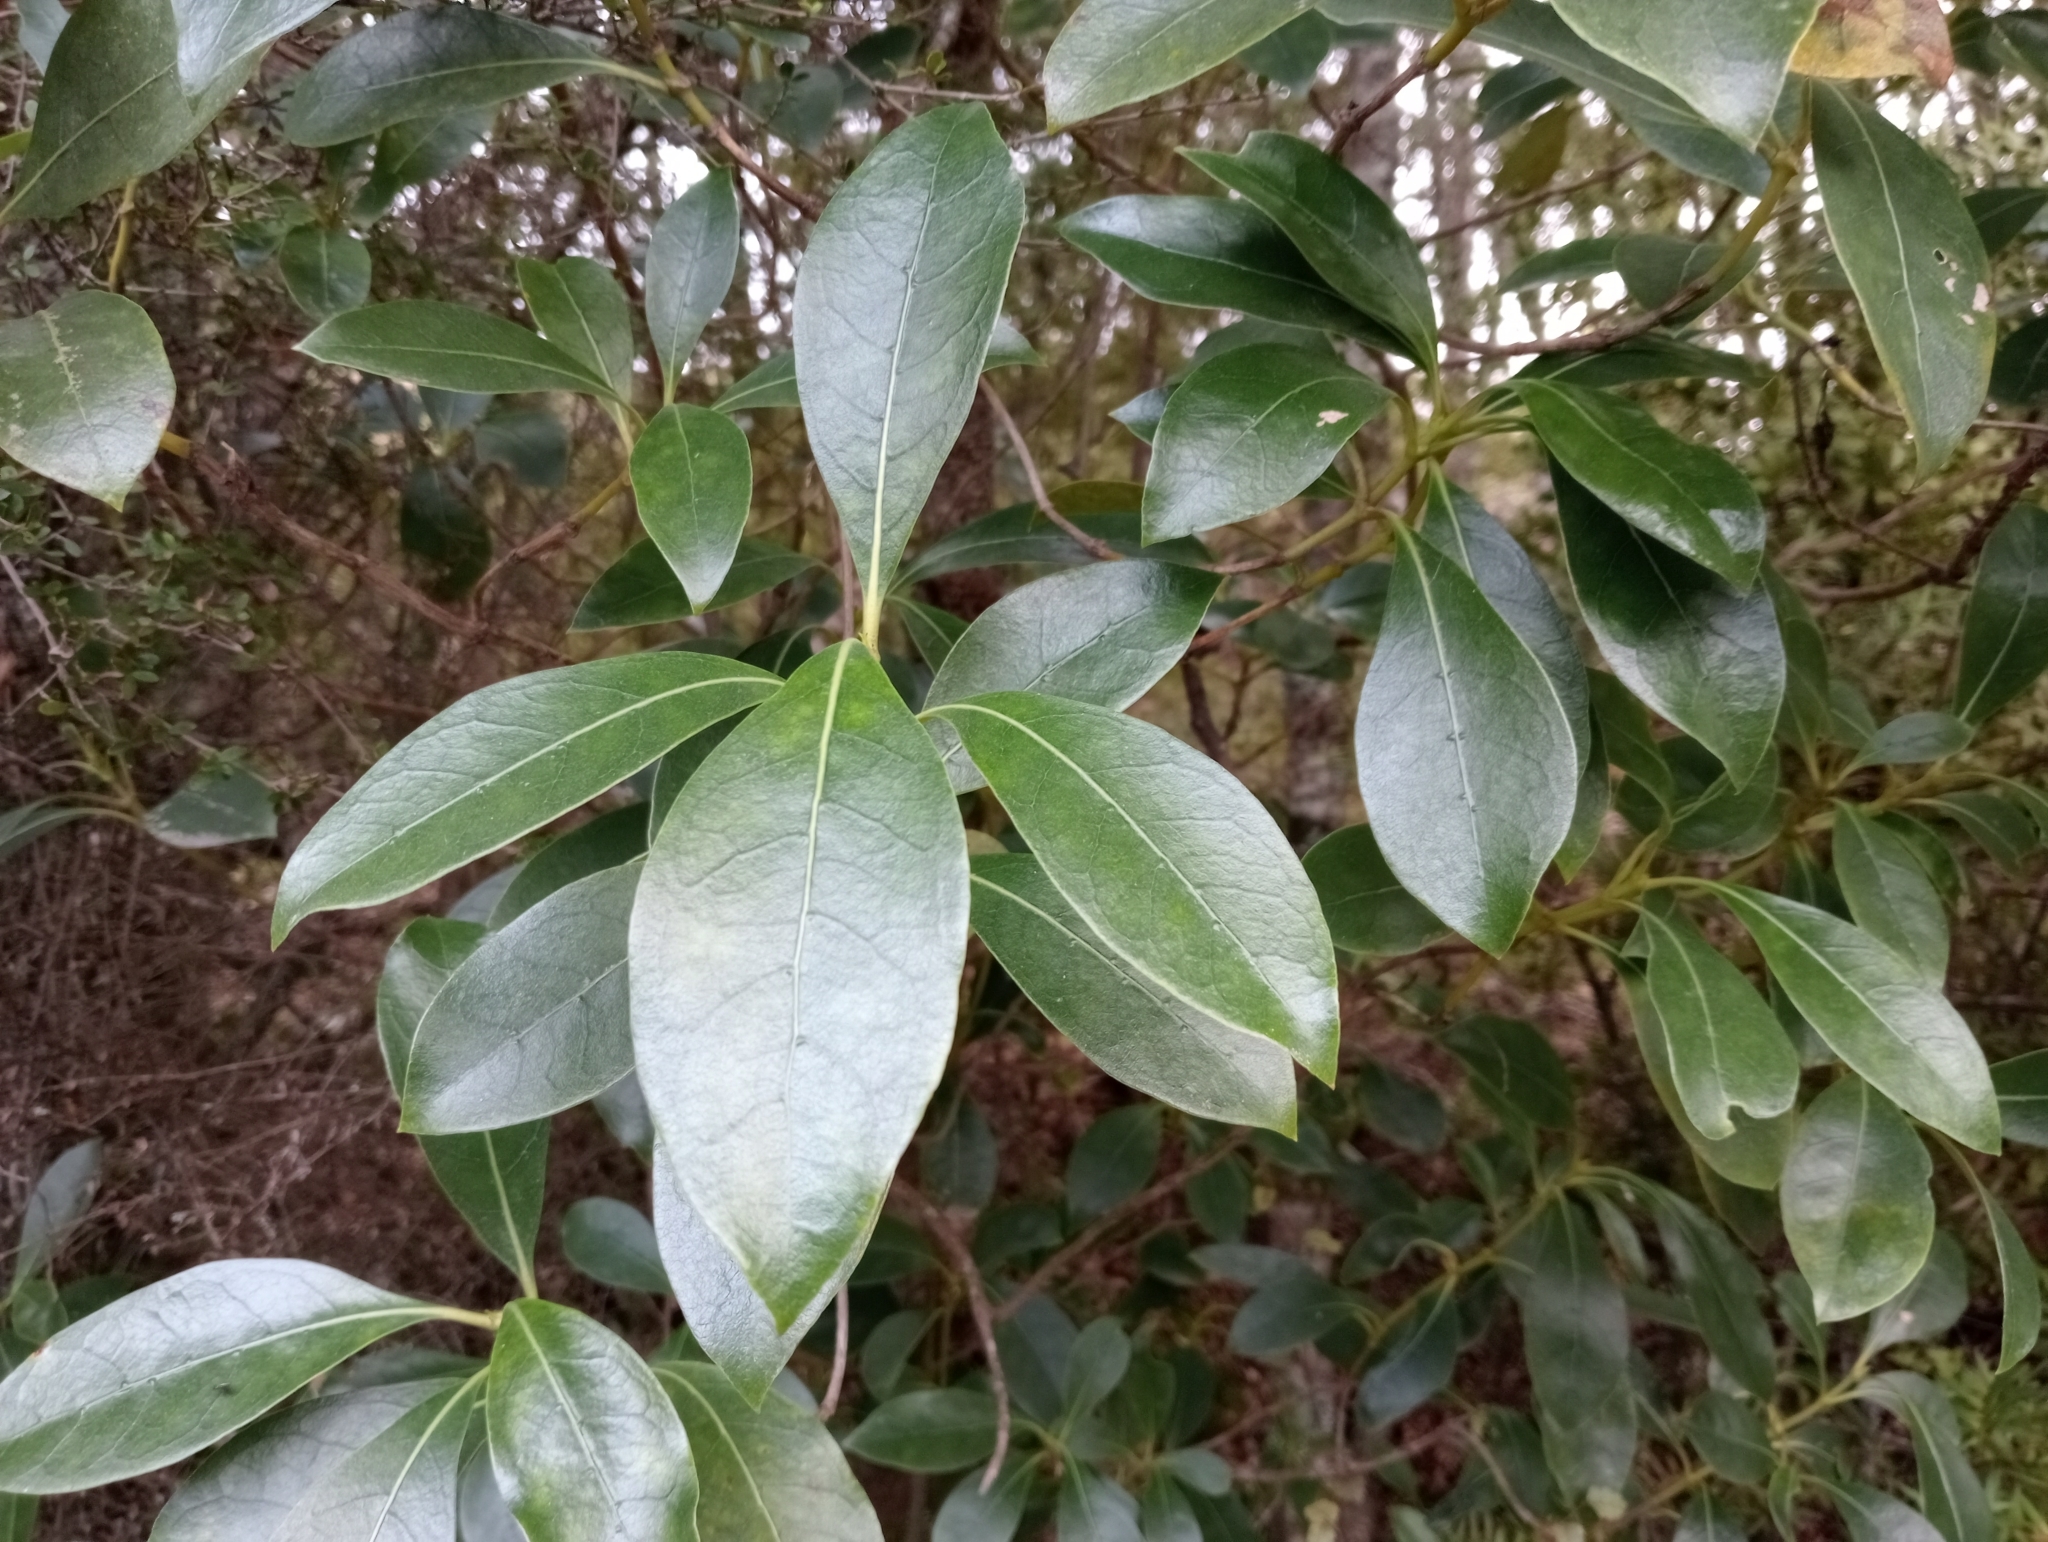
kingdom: Plantae
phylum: Tracheophyta
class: Magnoliopsida
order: Gentianales
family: Rubiaceae
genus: Coprosma
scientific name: Coprosma lucida
